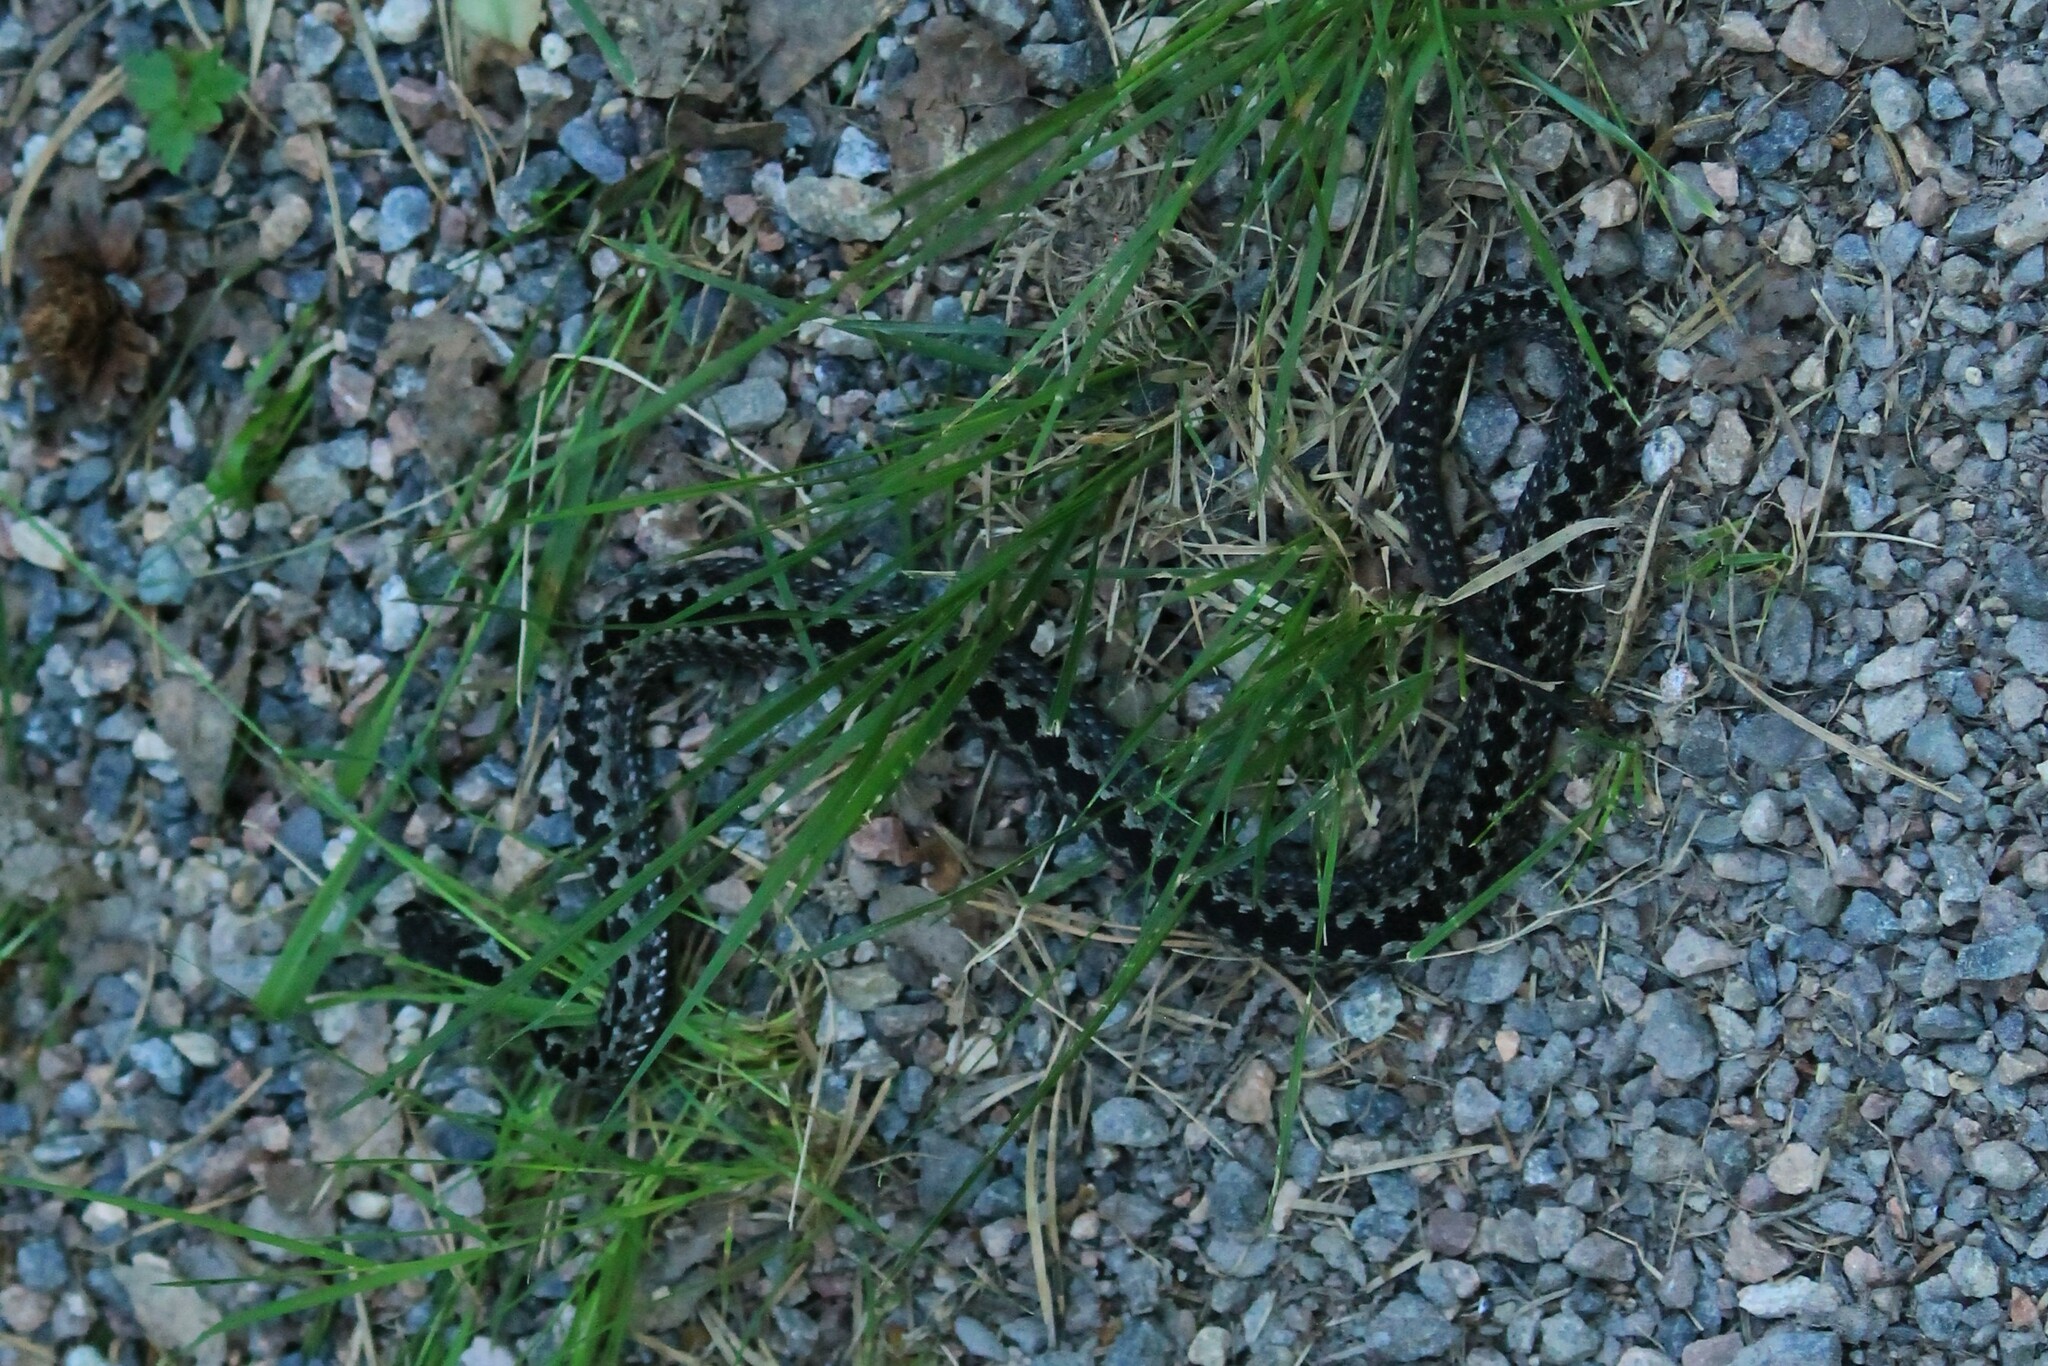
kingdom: Animalia
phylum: Chordata
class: Squamata
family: Viperidae
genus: Vipera
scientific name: Vipera berus
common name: Adder
